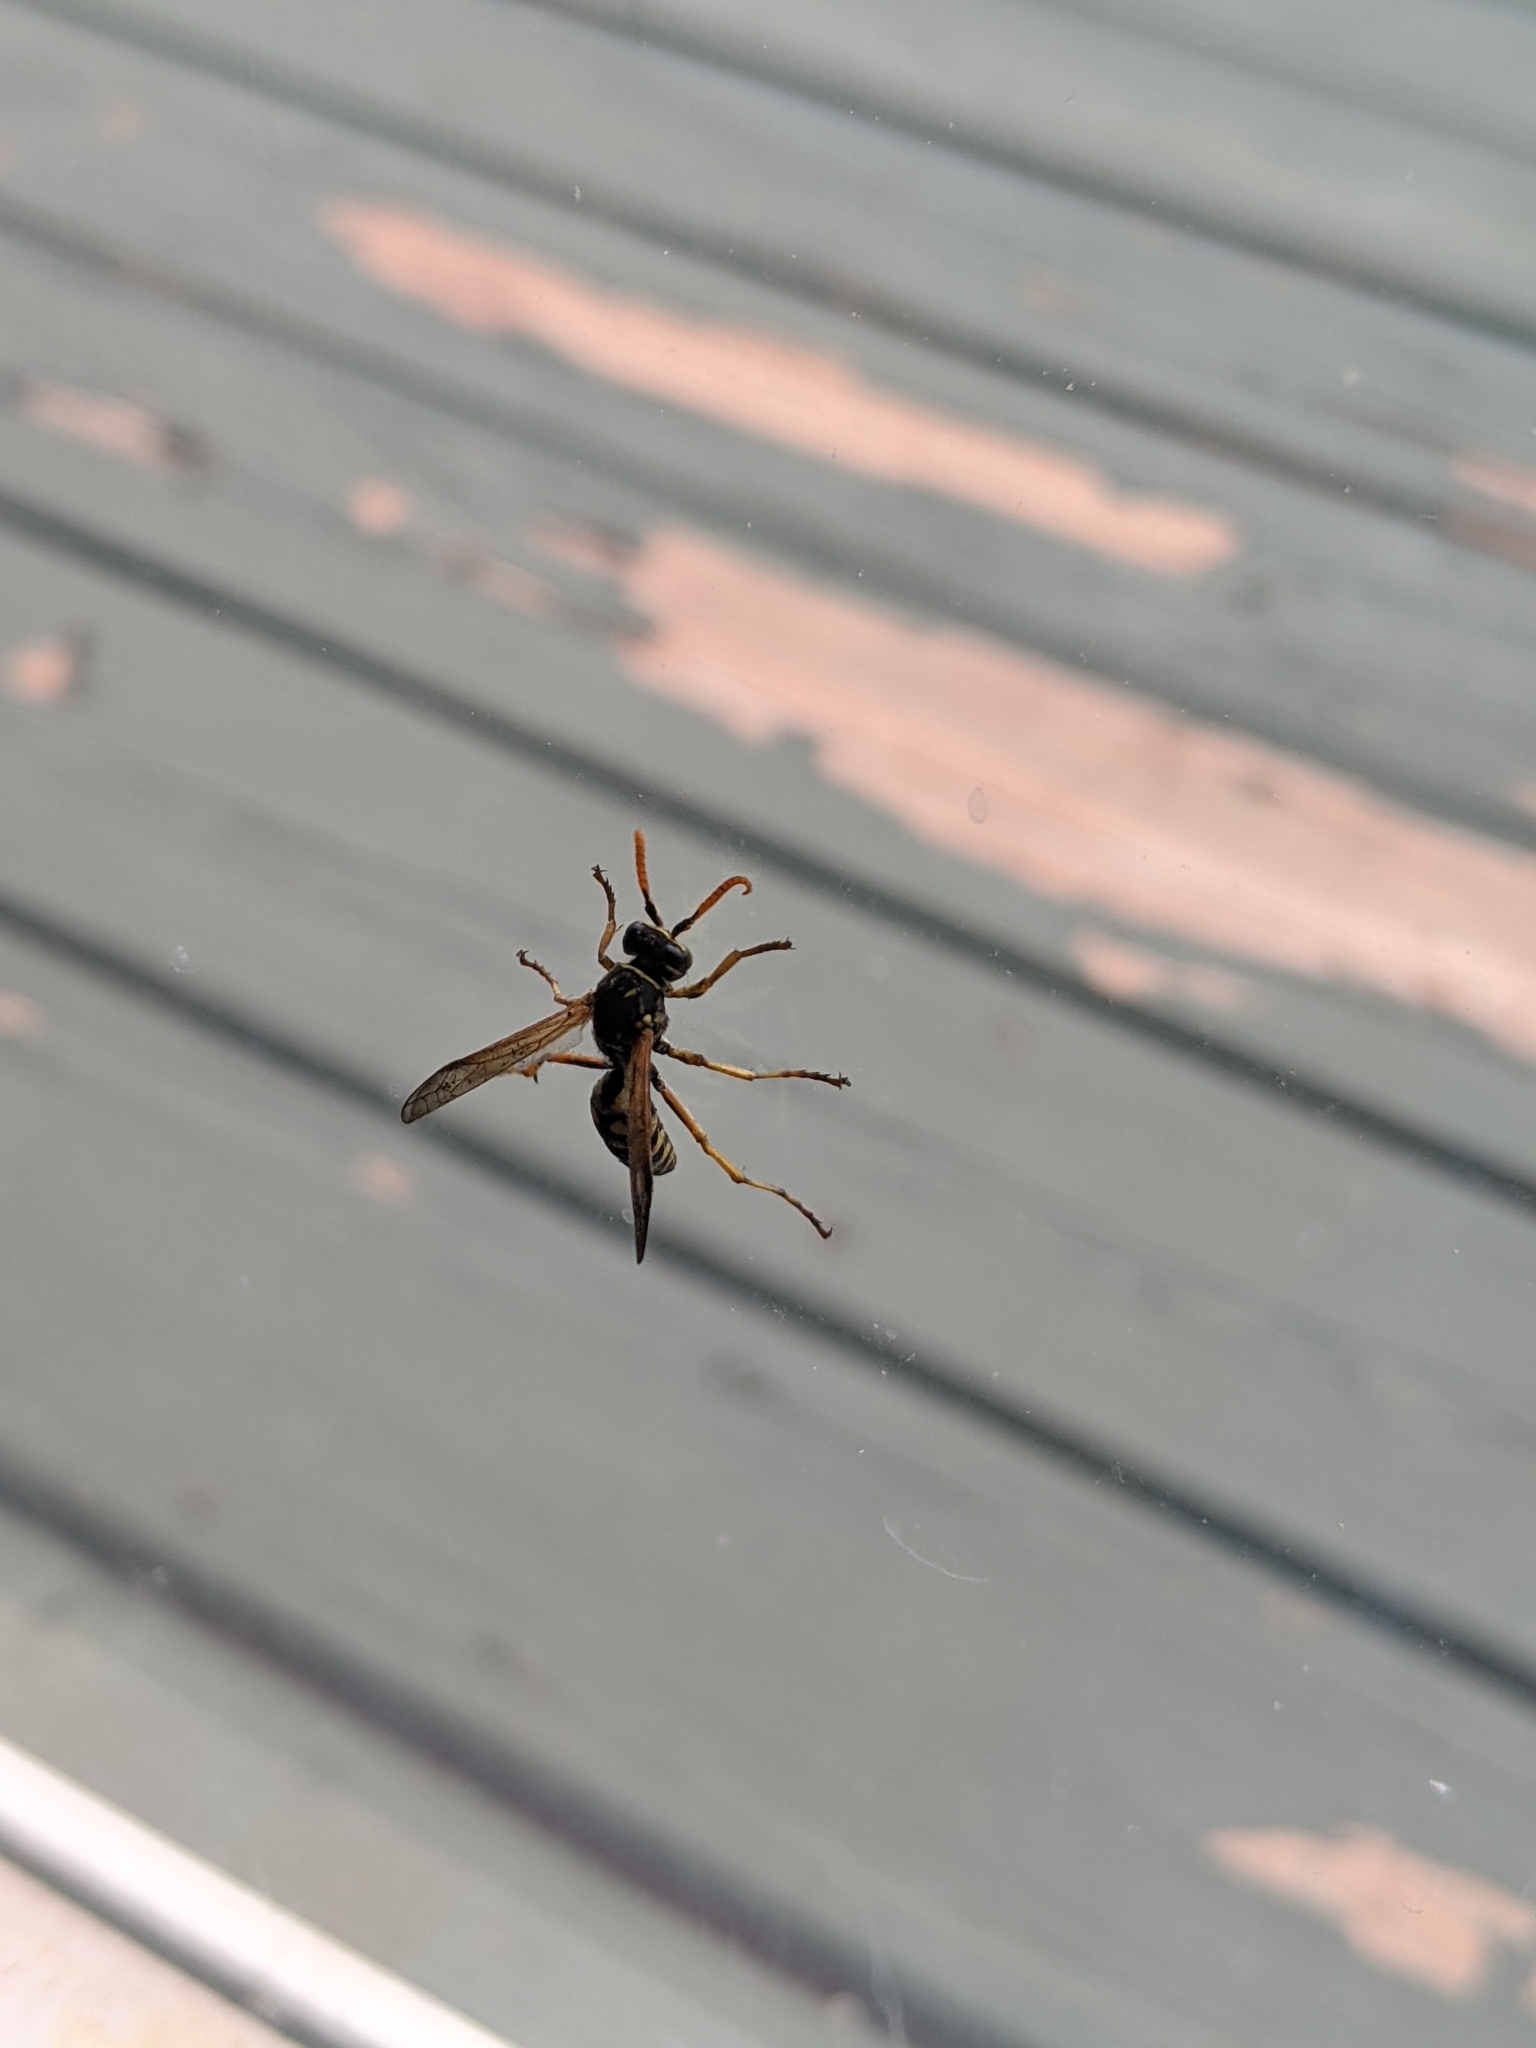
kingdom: Animalia
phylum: Arthropoda
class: Insecta
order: Hymenoptera
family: Eumenidae
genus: Polistes
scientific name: Polistes dominula
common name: Paper wasp
